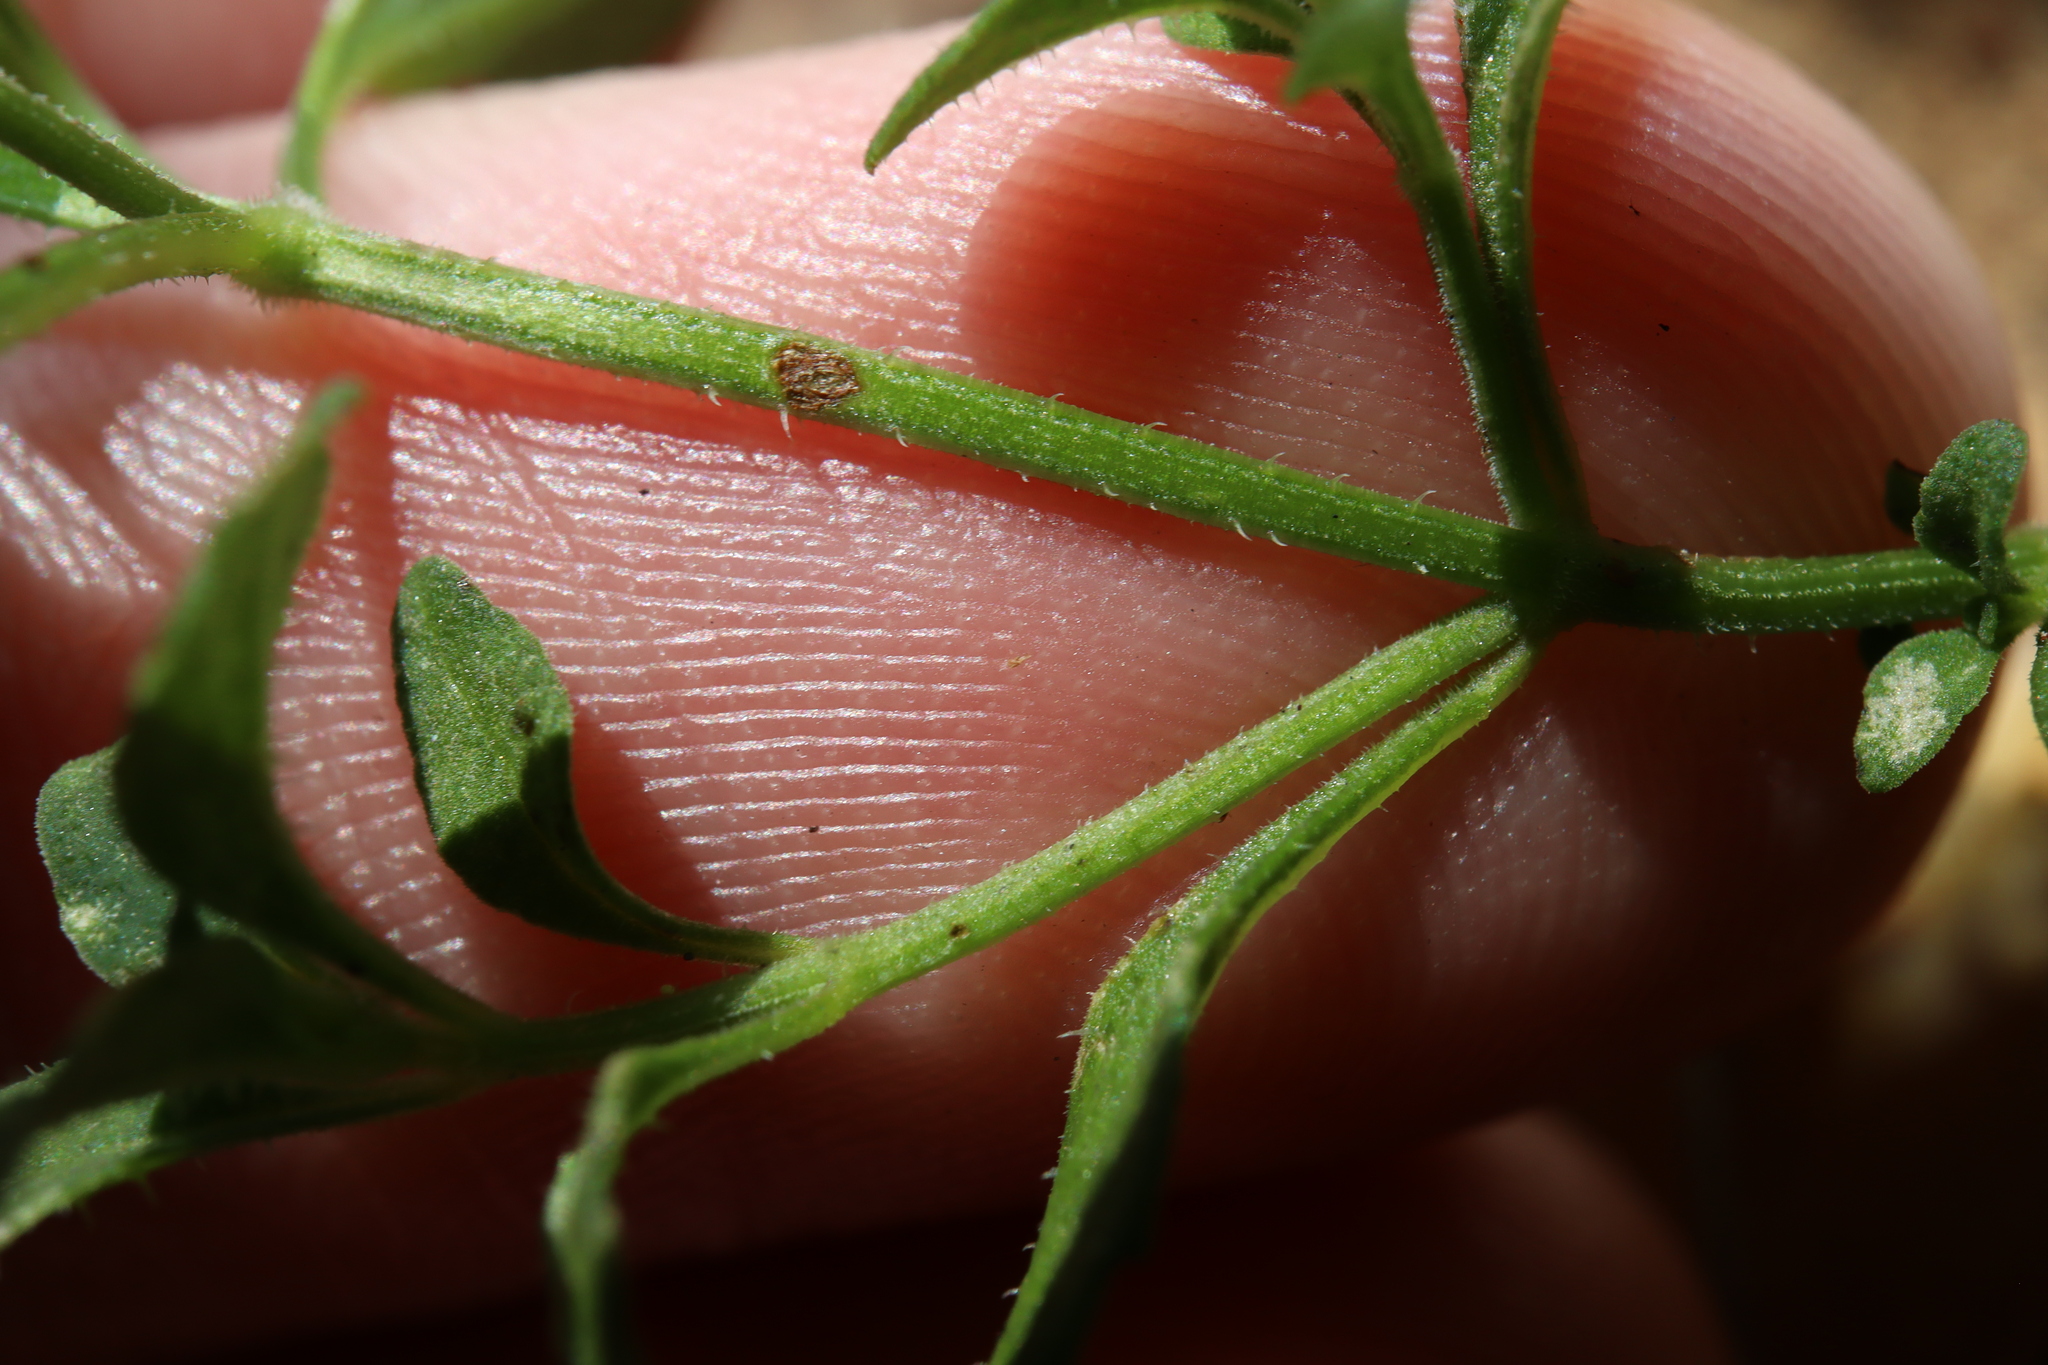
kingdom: Plantae
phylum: Tracheophyta
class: Magnoliopsida
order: Lamiales
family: Lamiaceae
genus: Mentha
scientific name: Mentha diemenica
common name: Wild mint
